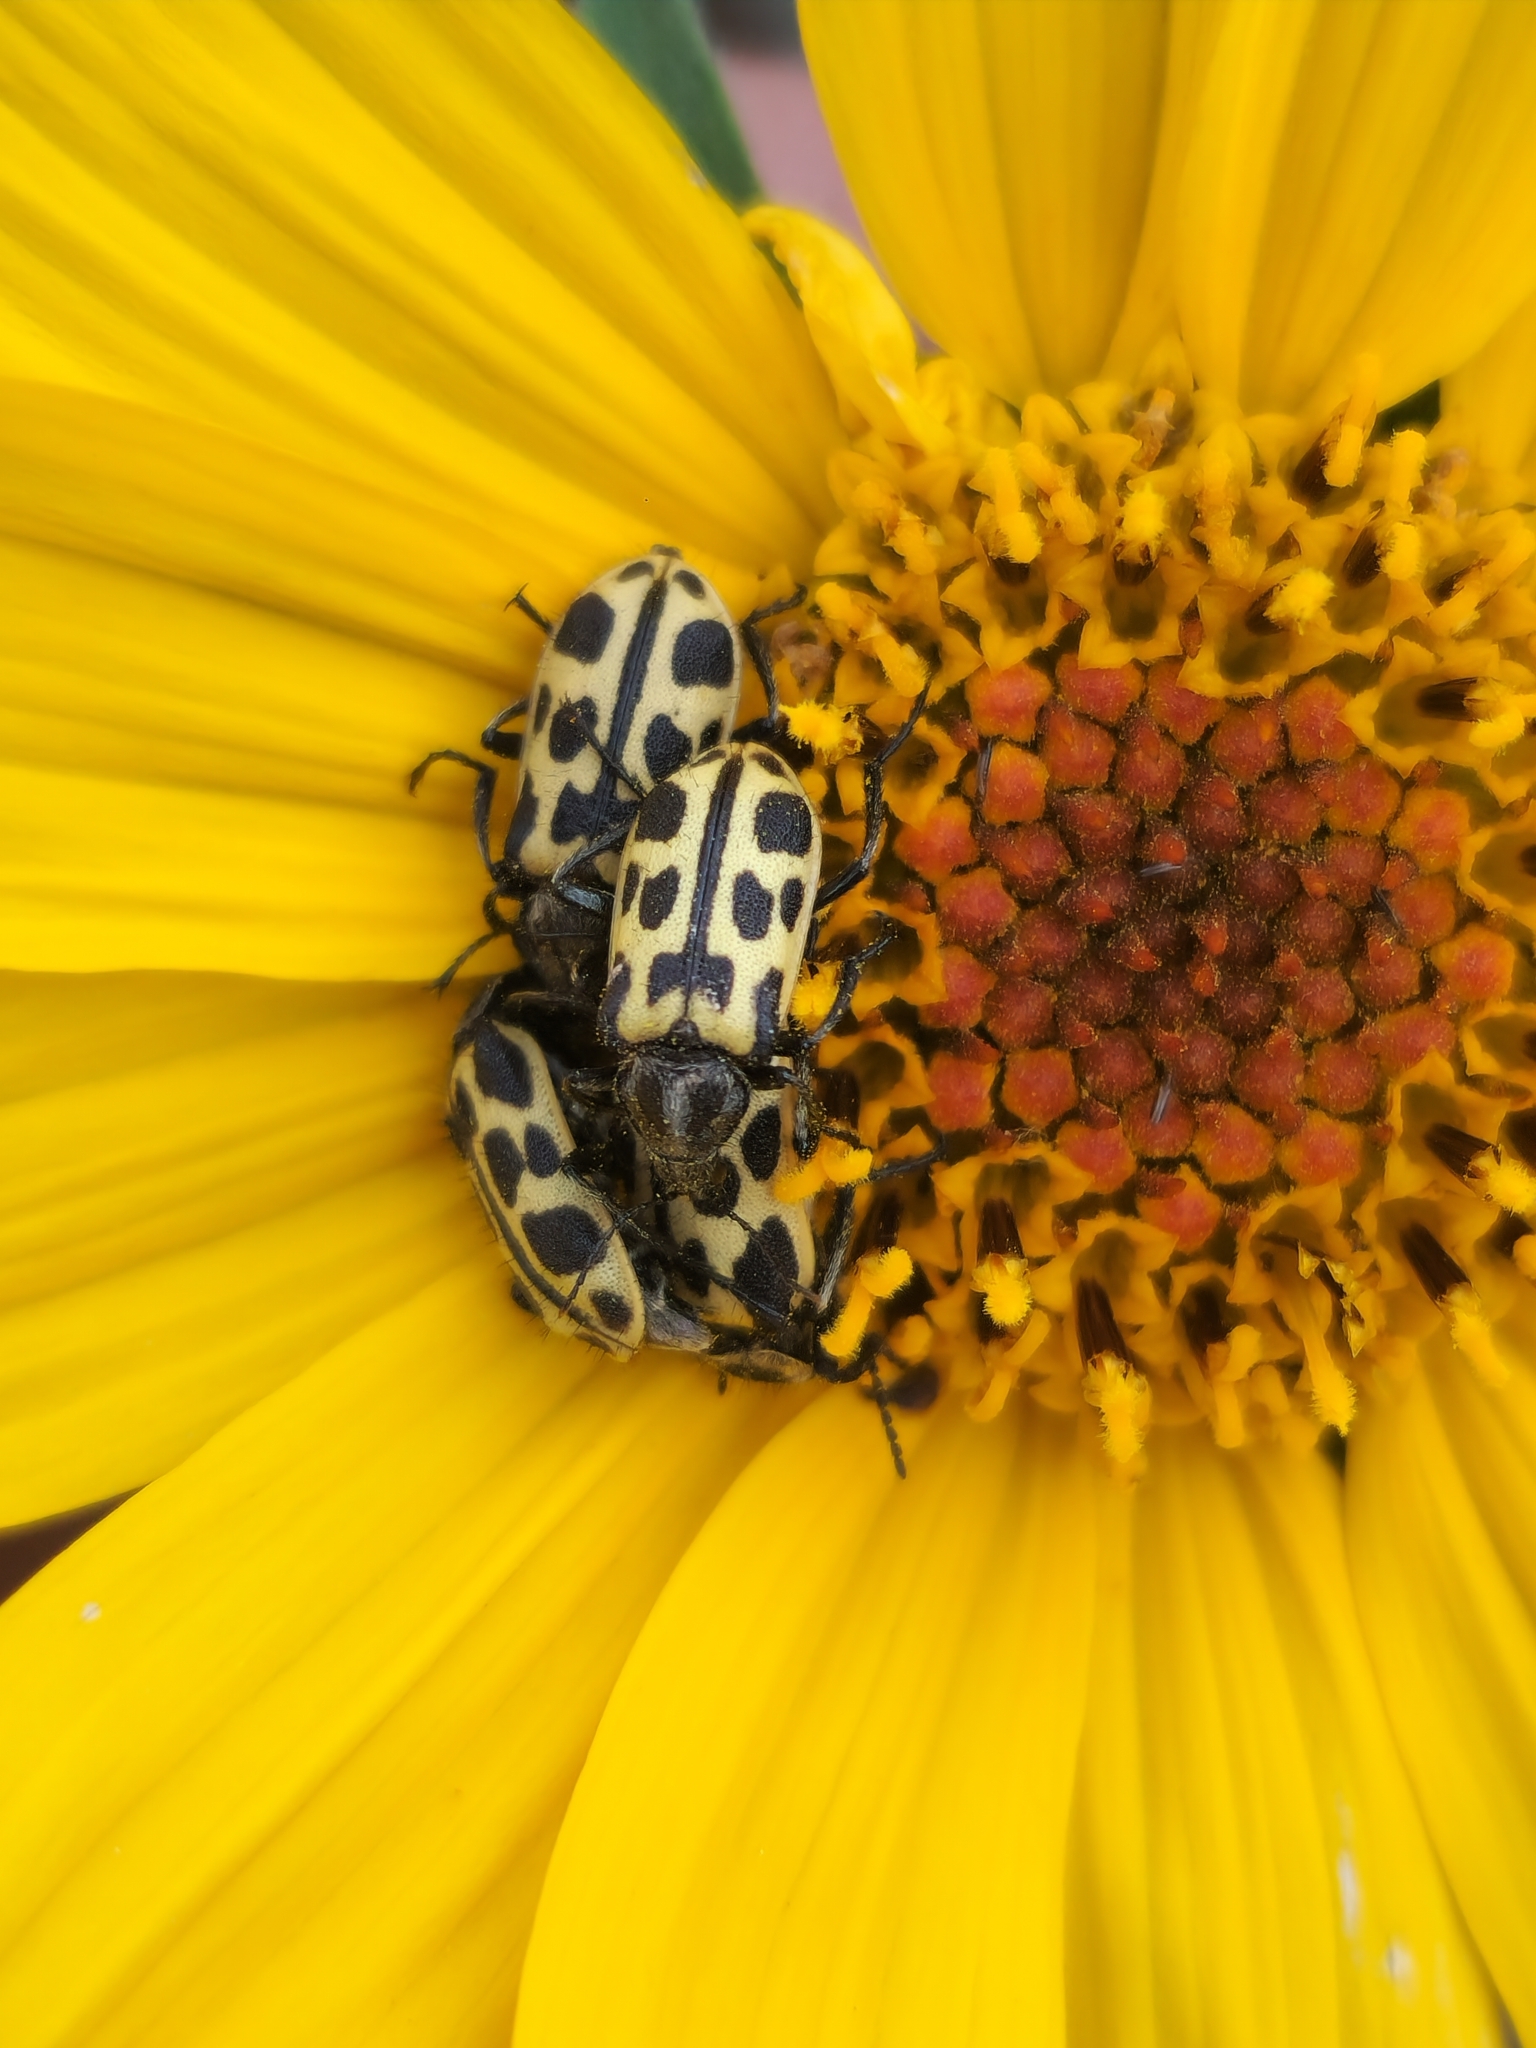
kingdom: Animalia
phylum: Arthropoda
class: Insecta
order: Coleoptera
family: Melyridae
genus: Astylus
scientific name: Astylus atromaculatus
